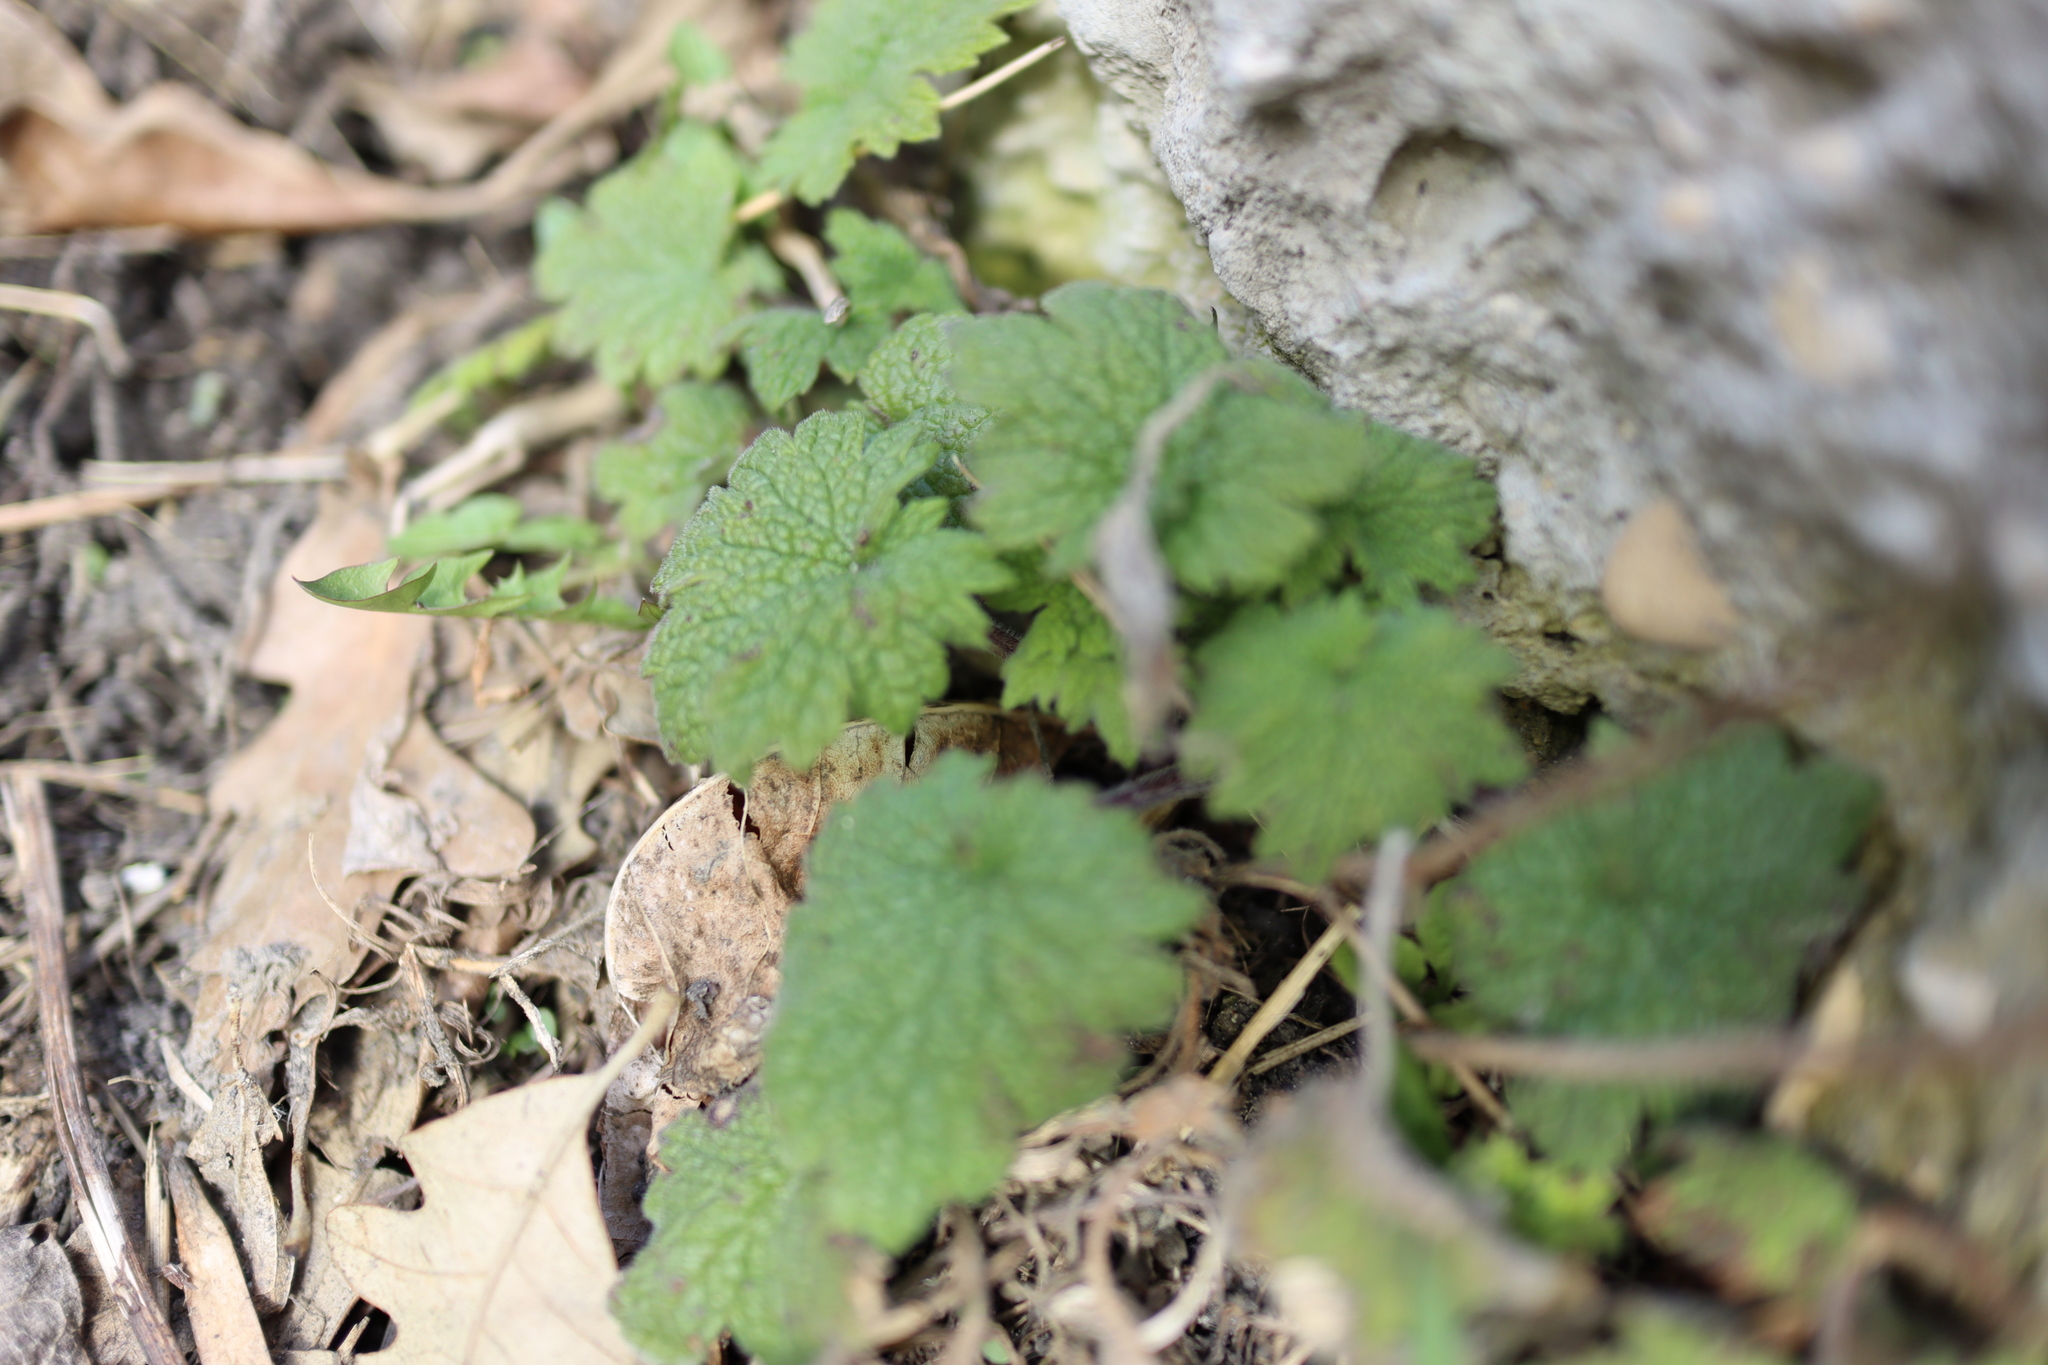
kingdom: Plantae
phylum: Tracheophyta
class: Magnoliopsida
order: Lamiales
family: Lamiaceae
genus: Leonurus
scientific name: Leonurus cardiaca
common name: Motherwort
